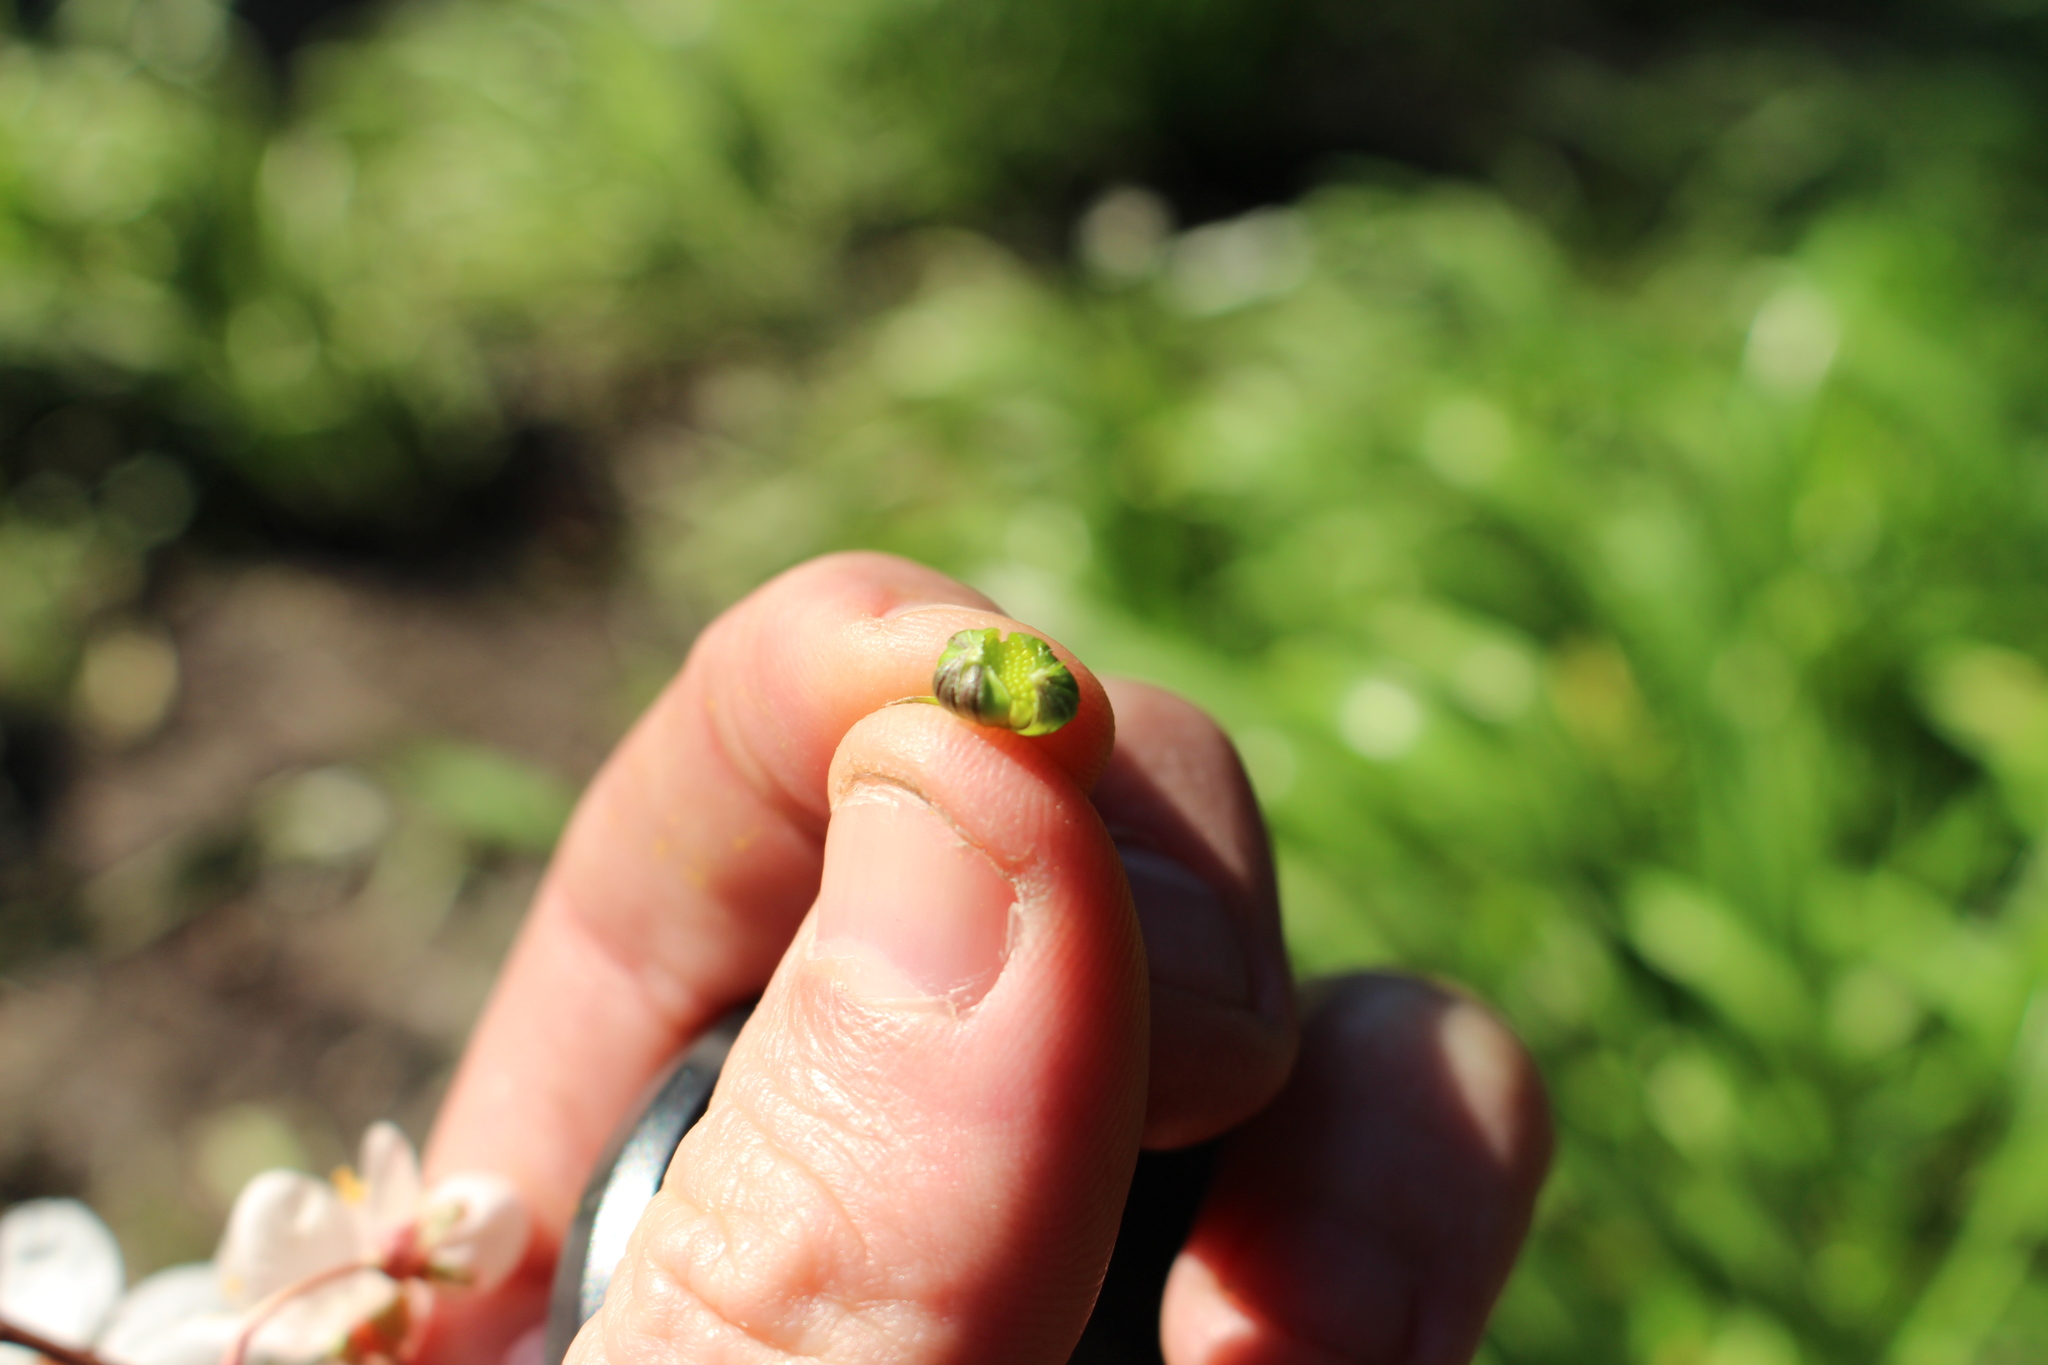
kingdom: Plantae
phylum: Tracheophyta
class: Magnoliopsida
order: Asterales
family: Asteraceae
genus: Euryops
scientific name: Euryops chrysanthemoides
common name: Bull's eye
